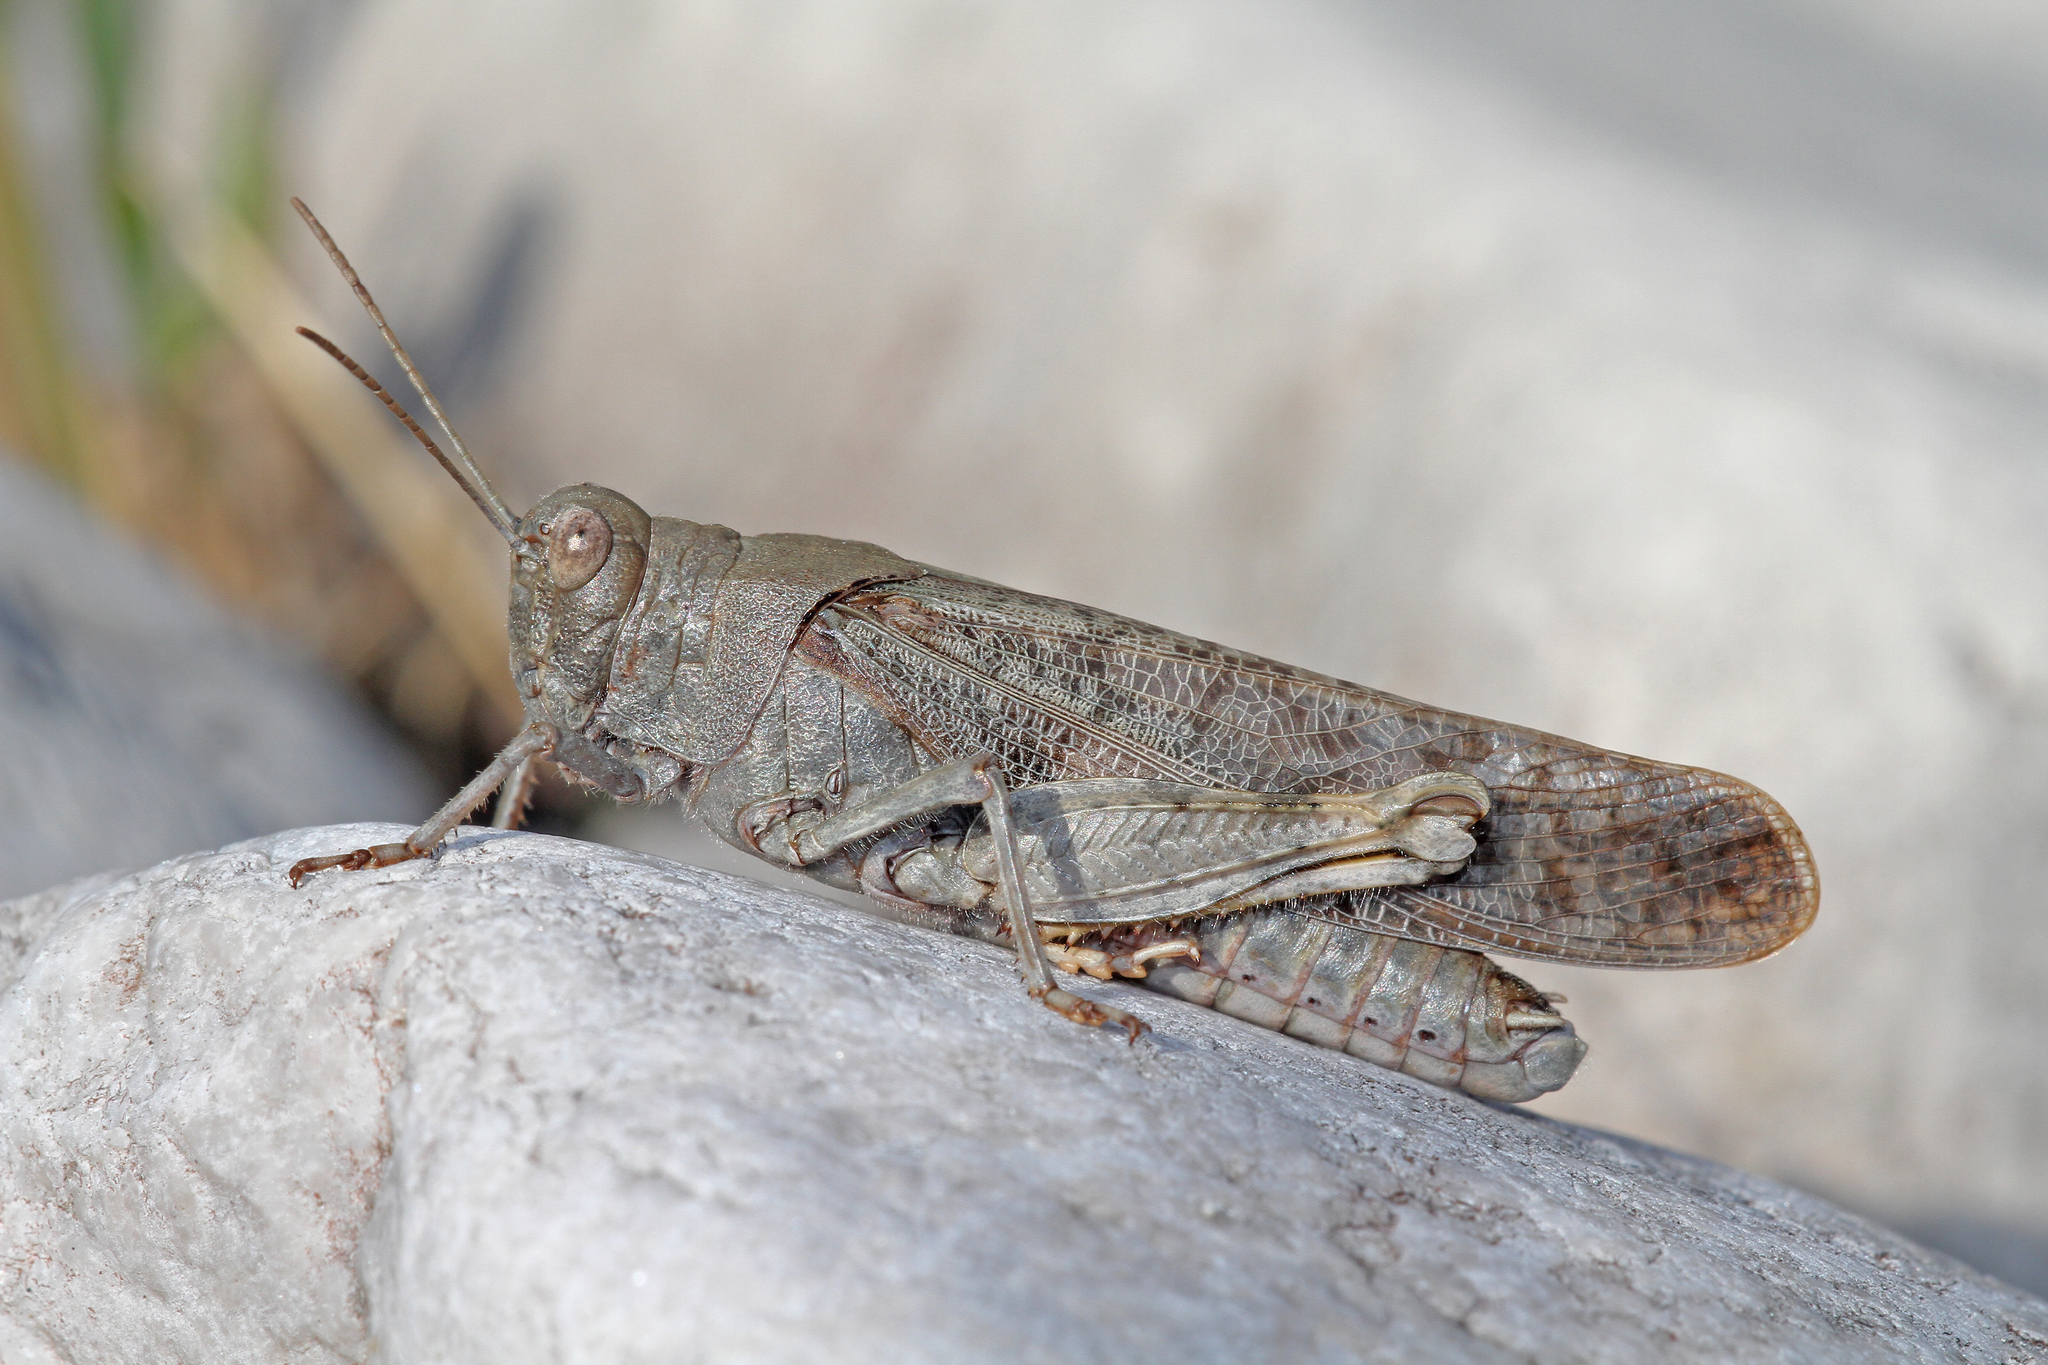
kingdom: Animalia
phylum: Arthropoda
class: Insecta
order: Orthoptera
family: Acrididae
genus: Bryodemella
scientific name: Bryodemella tuberculata
